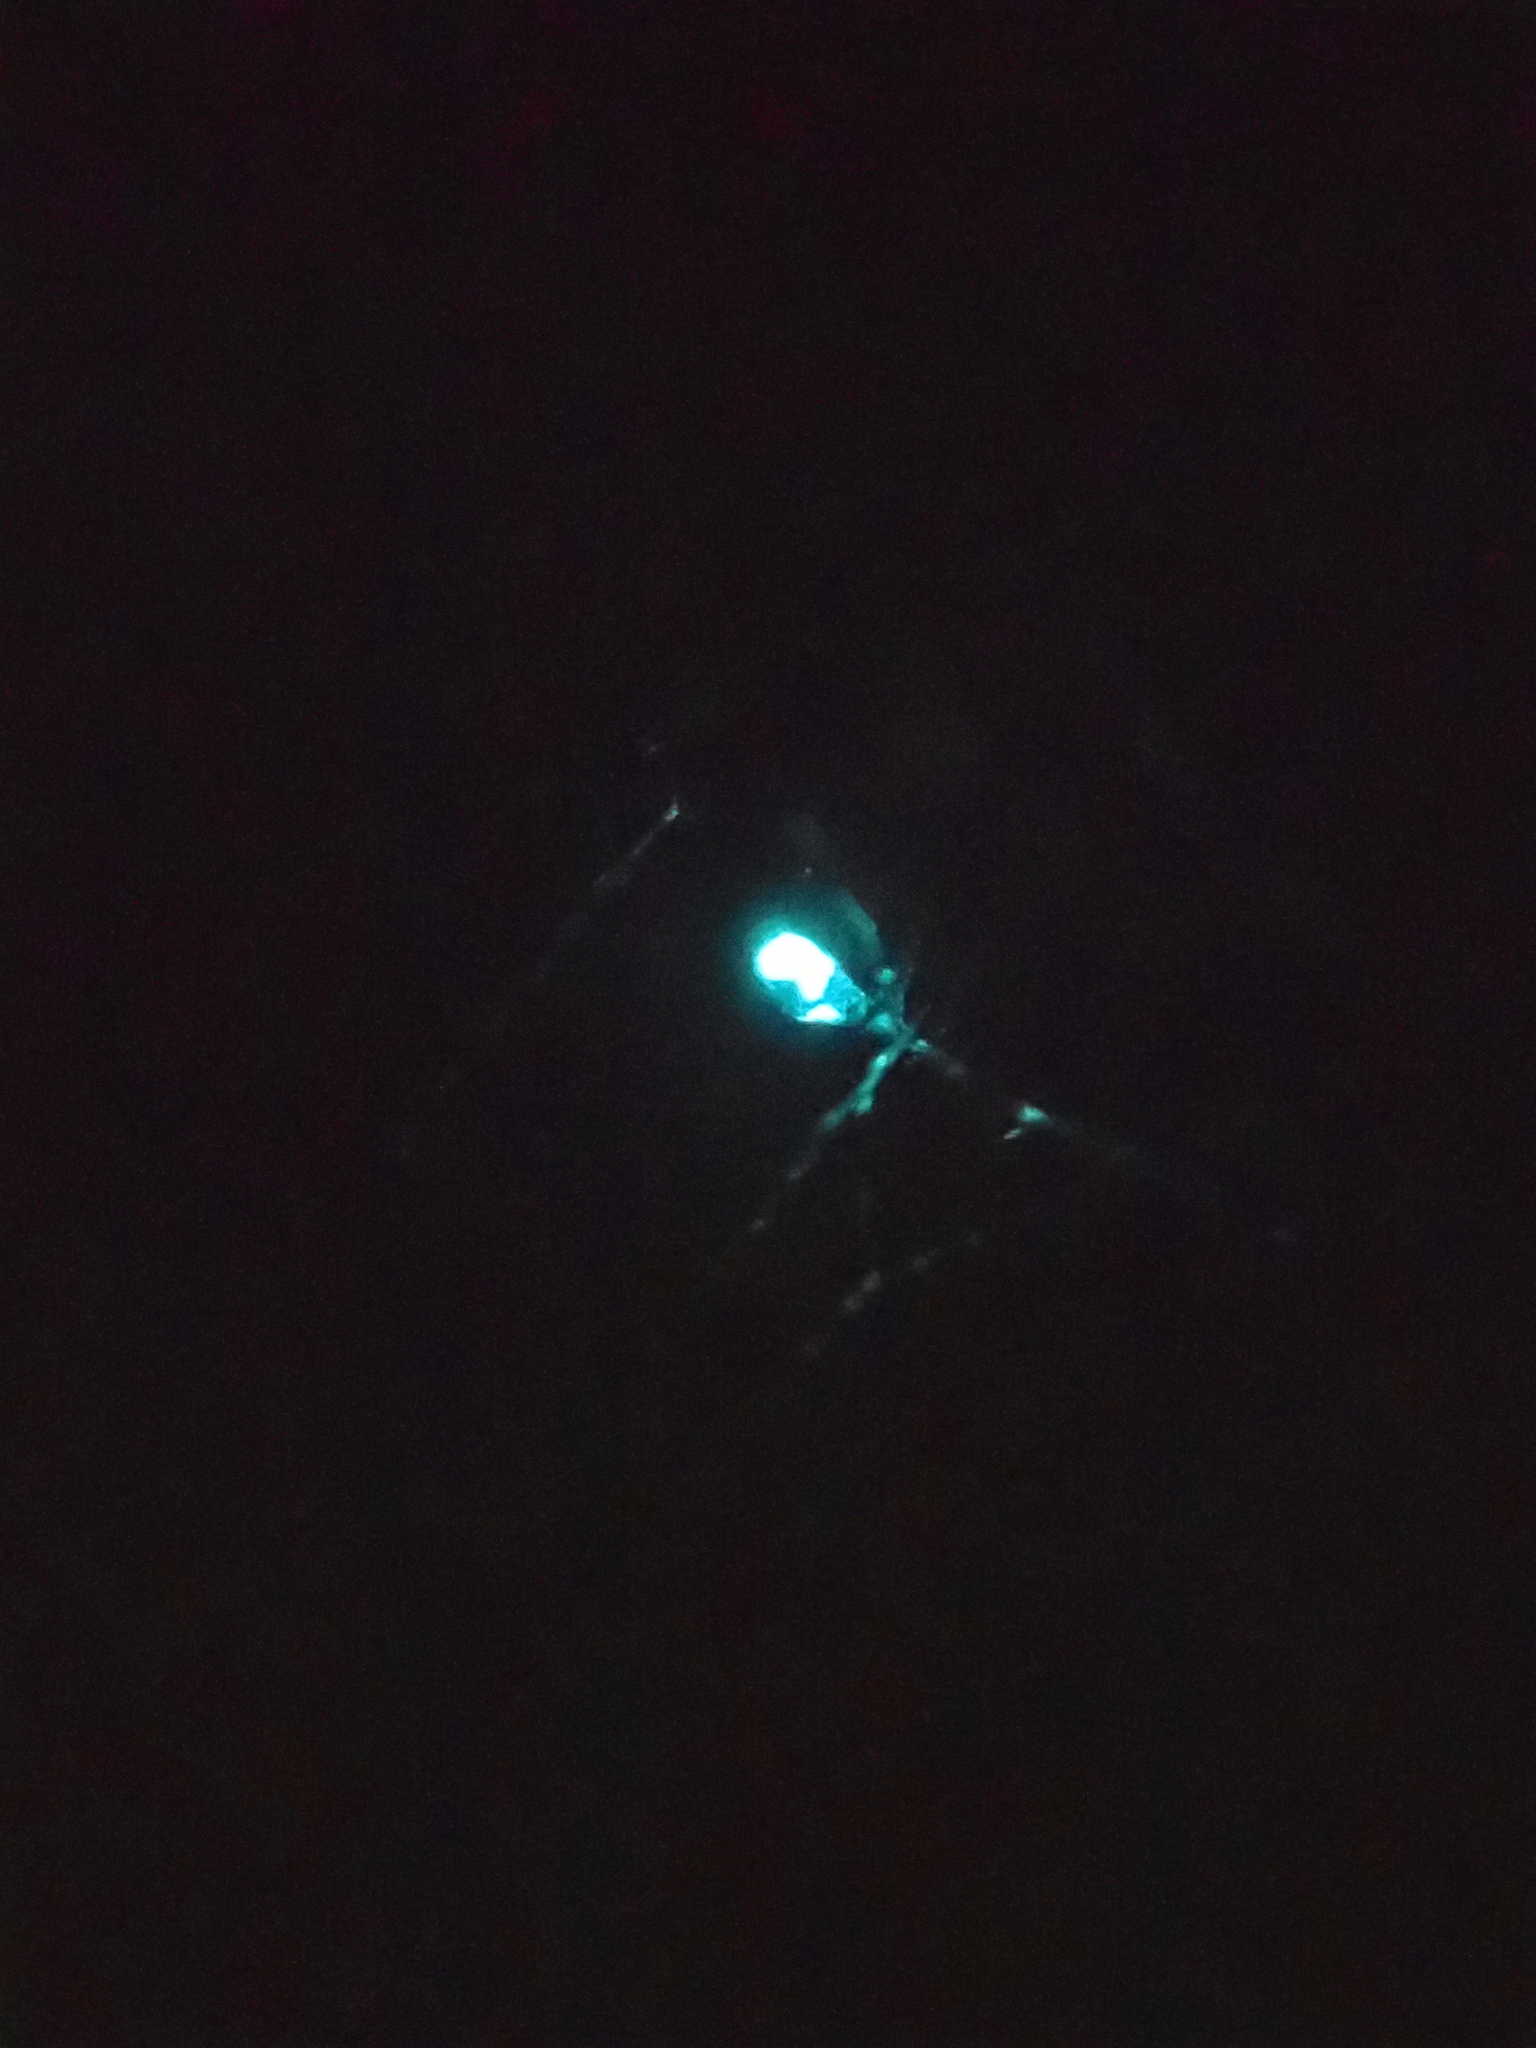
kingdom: Animalia
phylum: Arthropoda
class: Insecta
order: Diptera
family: Keroplatidae
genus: Arachnocampa
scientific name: Arachnocampa luminosa
